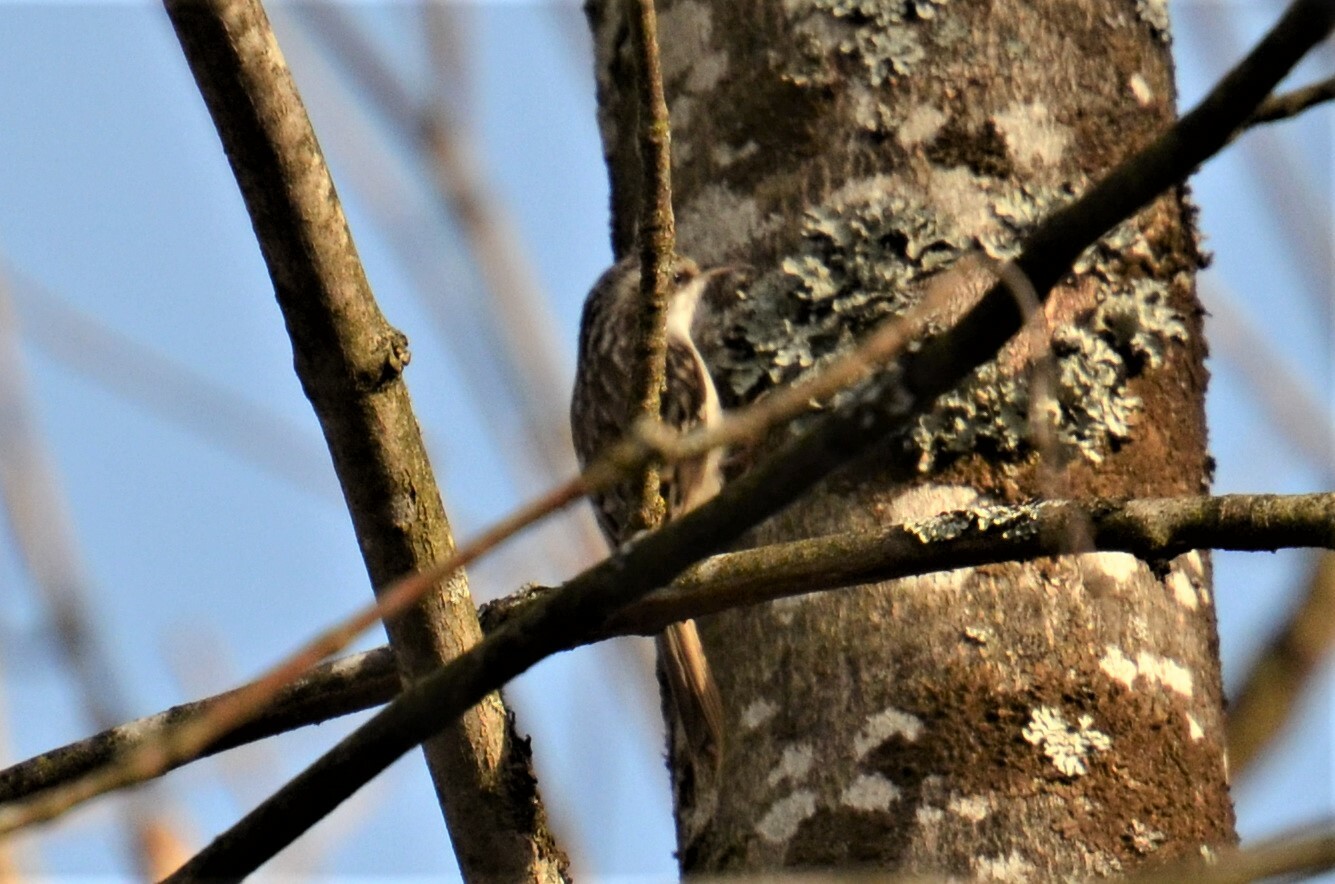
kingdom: Animalia
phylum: Chordata
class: Aves
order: Passeriformes
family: Certhiidae
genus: Certhia
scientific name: Certhia familiaris
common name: Eurasian treecreeper
